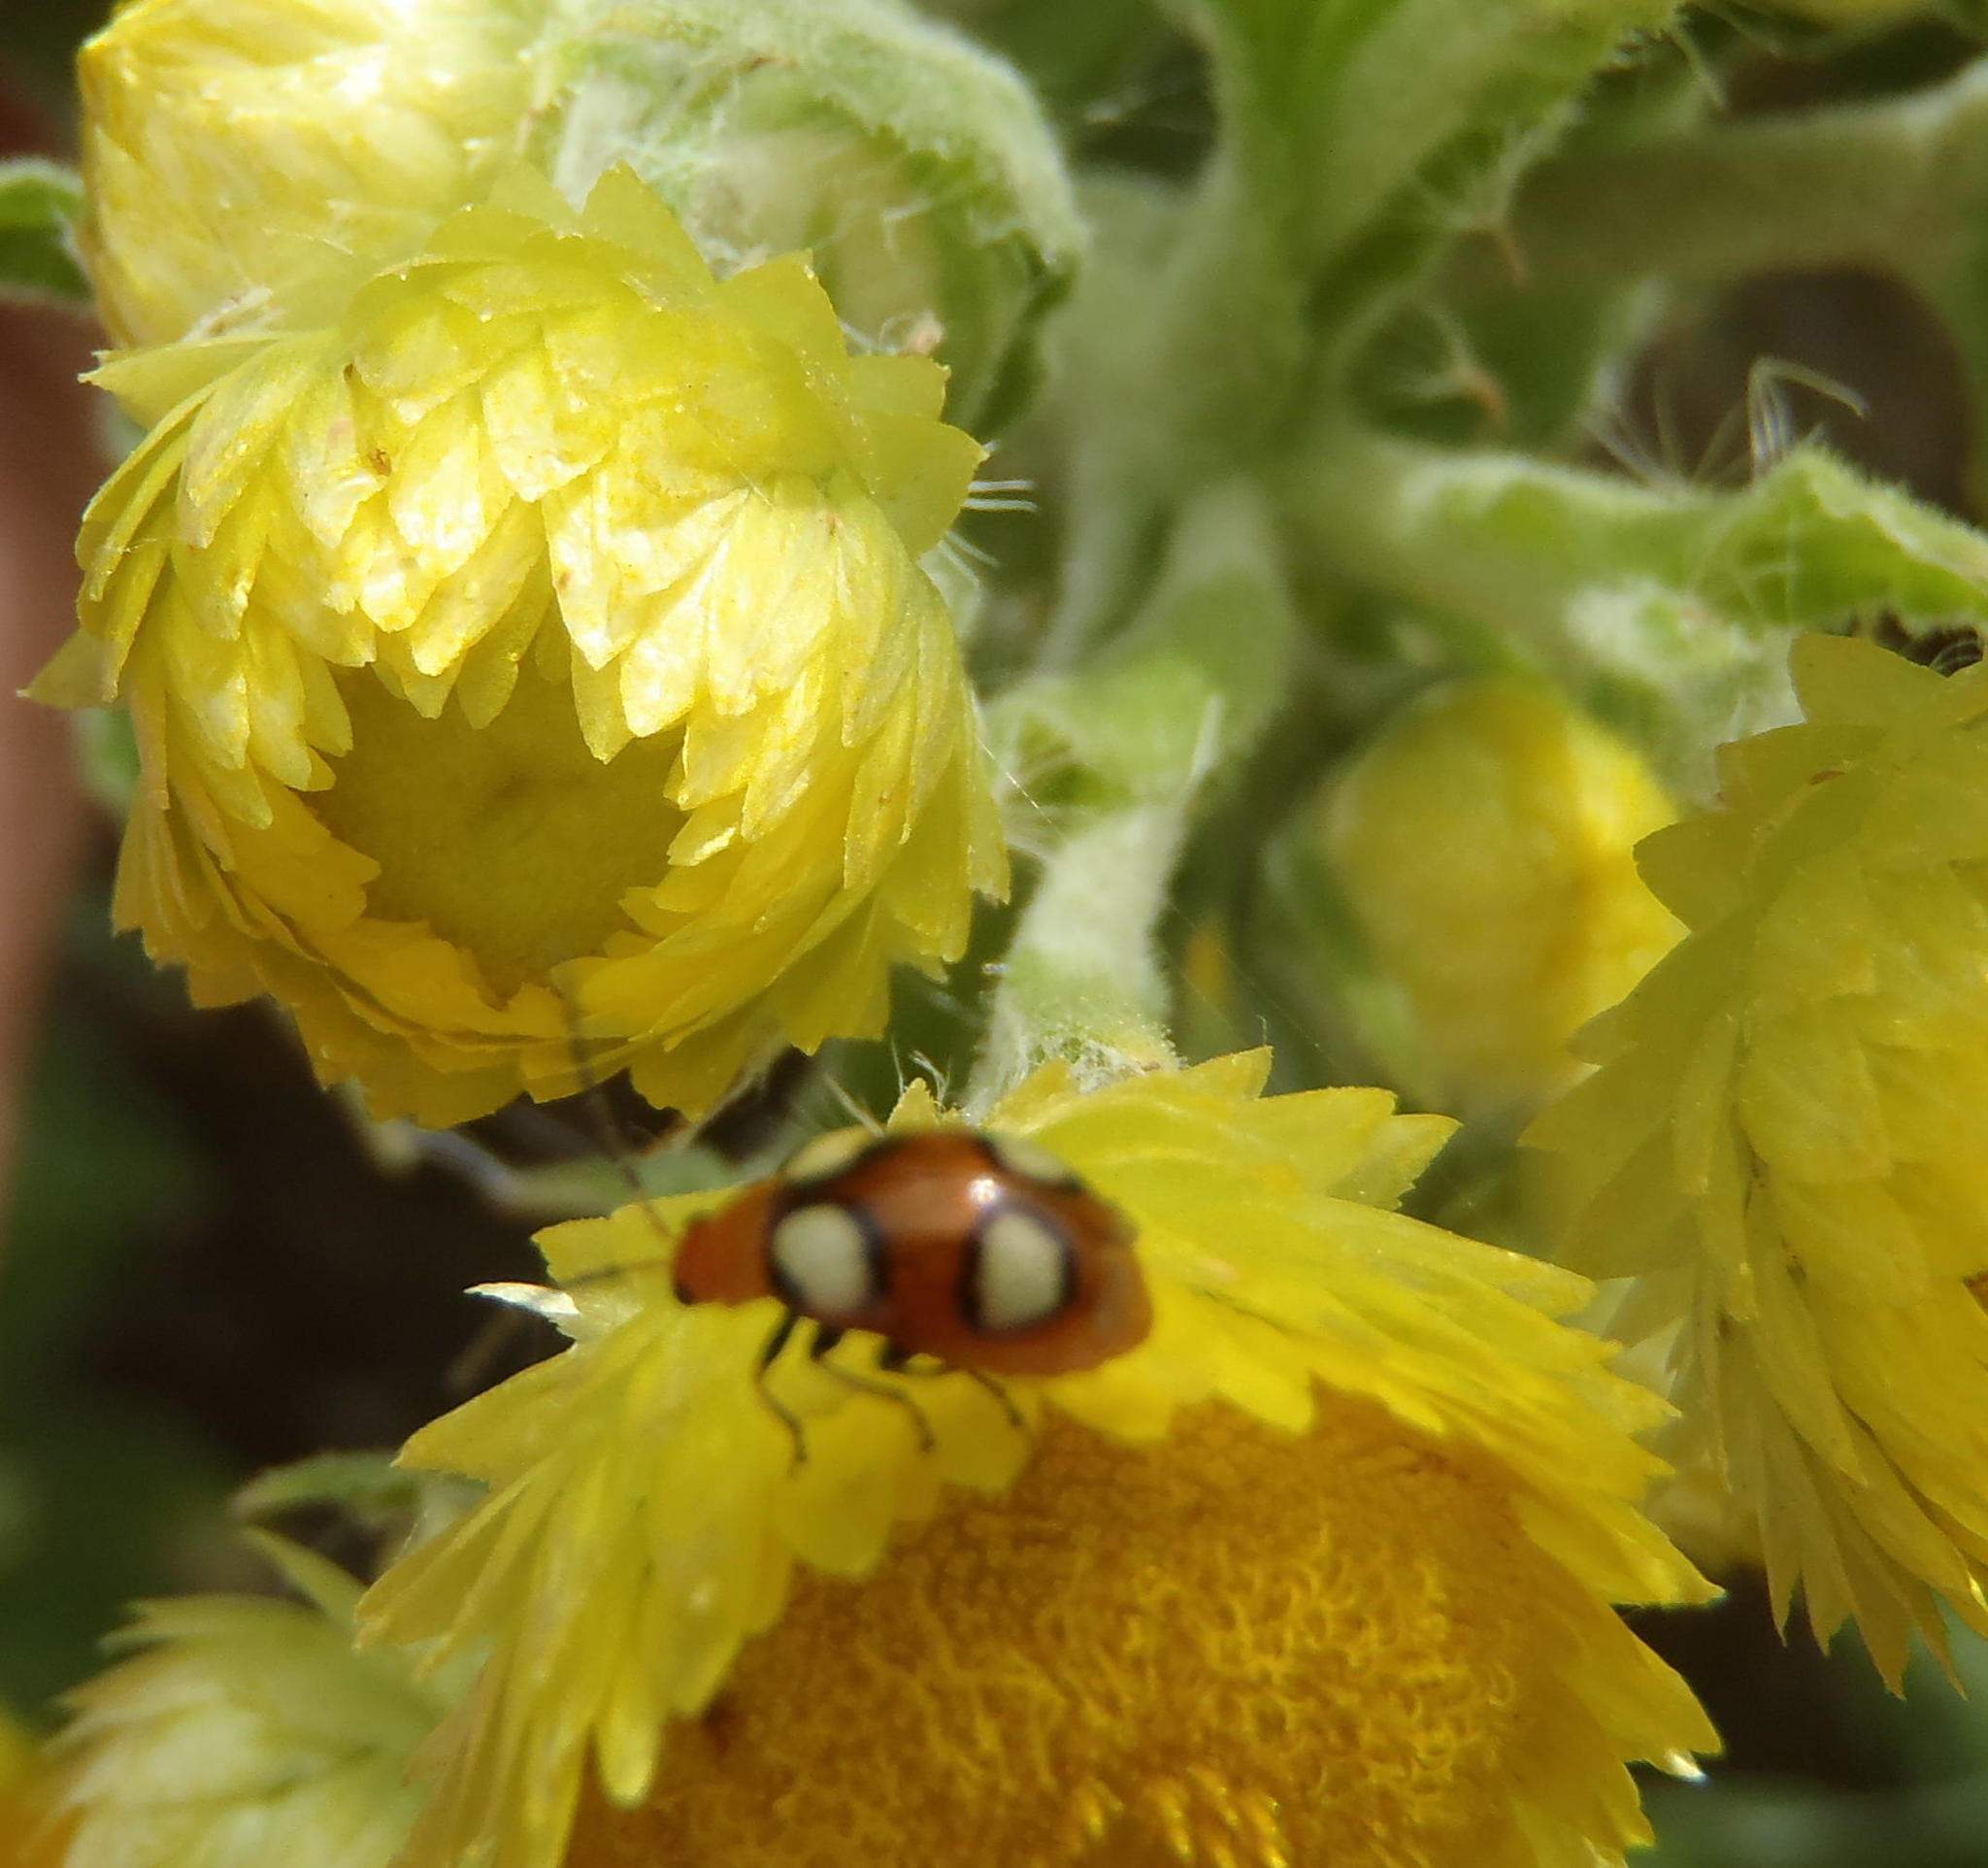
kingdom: Animalia
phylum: Arthropoda
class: Insecta
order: Coleoptera
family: Chrysomelidae
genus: Monolepta
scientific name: Monolepta
